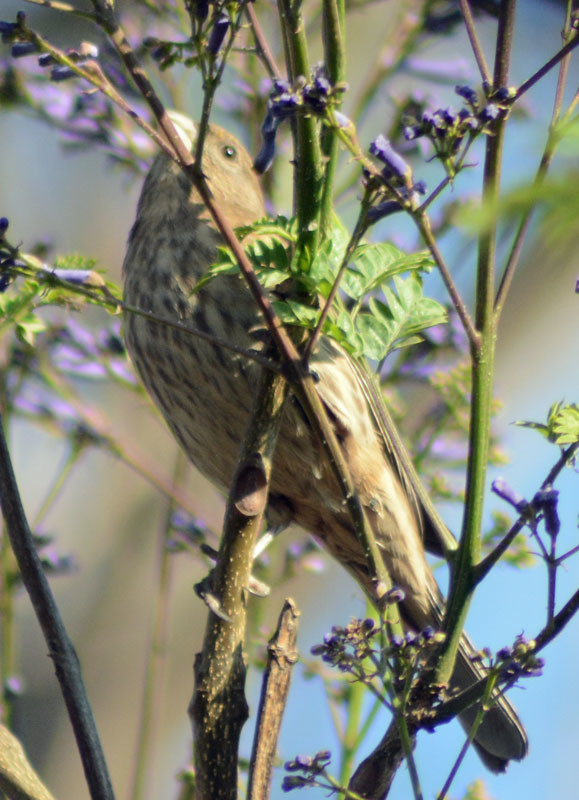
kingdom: Animalia
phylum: Chordata
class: Aves
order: Passeriformes
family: Fringillidae
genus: Haemorhous
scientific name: Haemorhous mexicanus
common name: House finch
